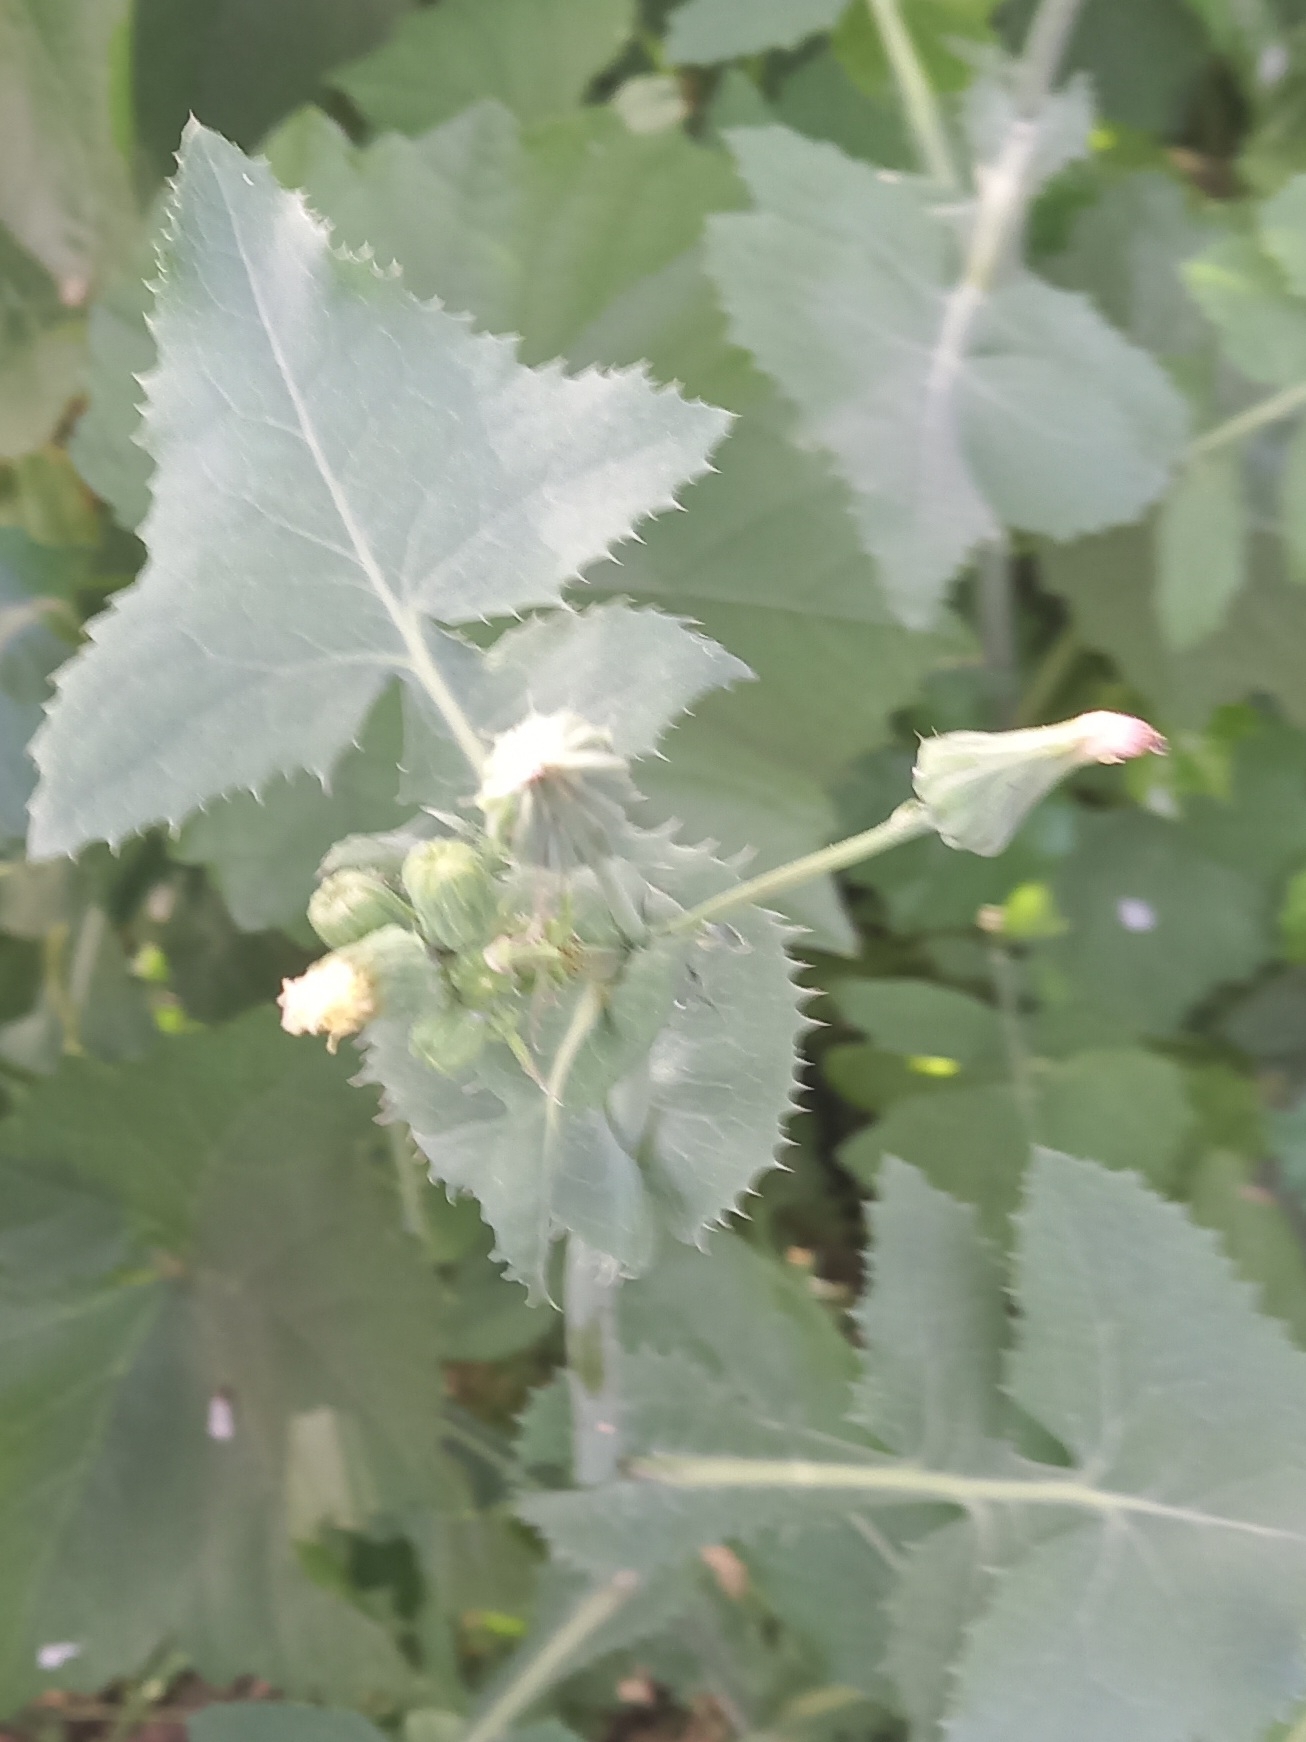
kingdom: Plantae
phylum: Tracheophyta
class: Magnoliopsida
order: Asterales
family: Asteraceae
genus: Sonchus
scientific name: Sonchus oleraceus
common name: Common sowthistle
